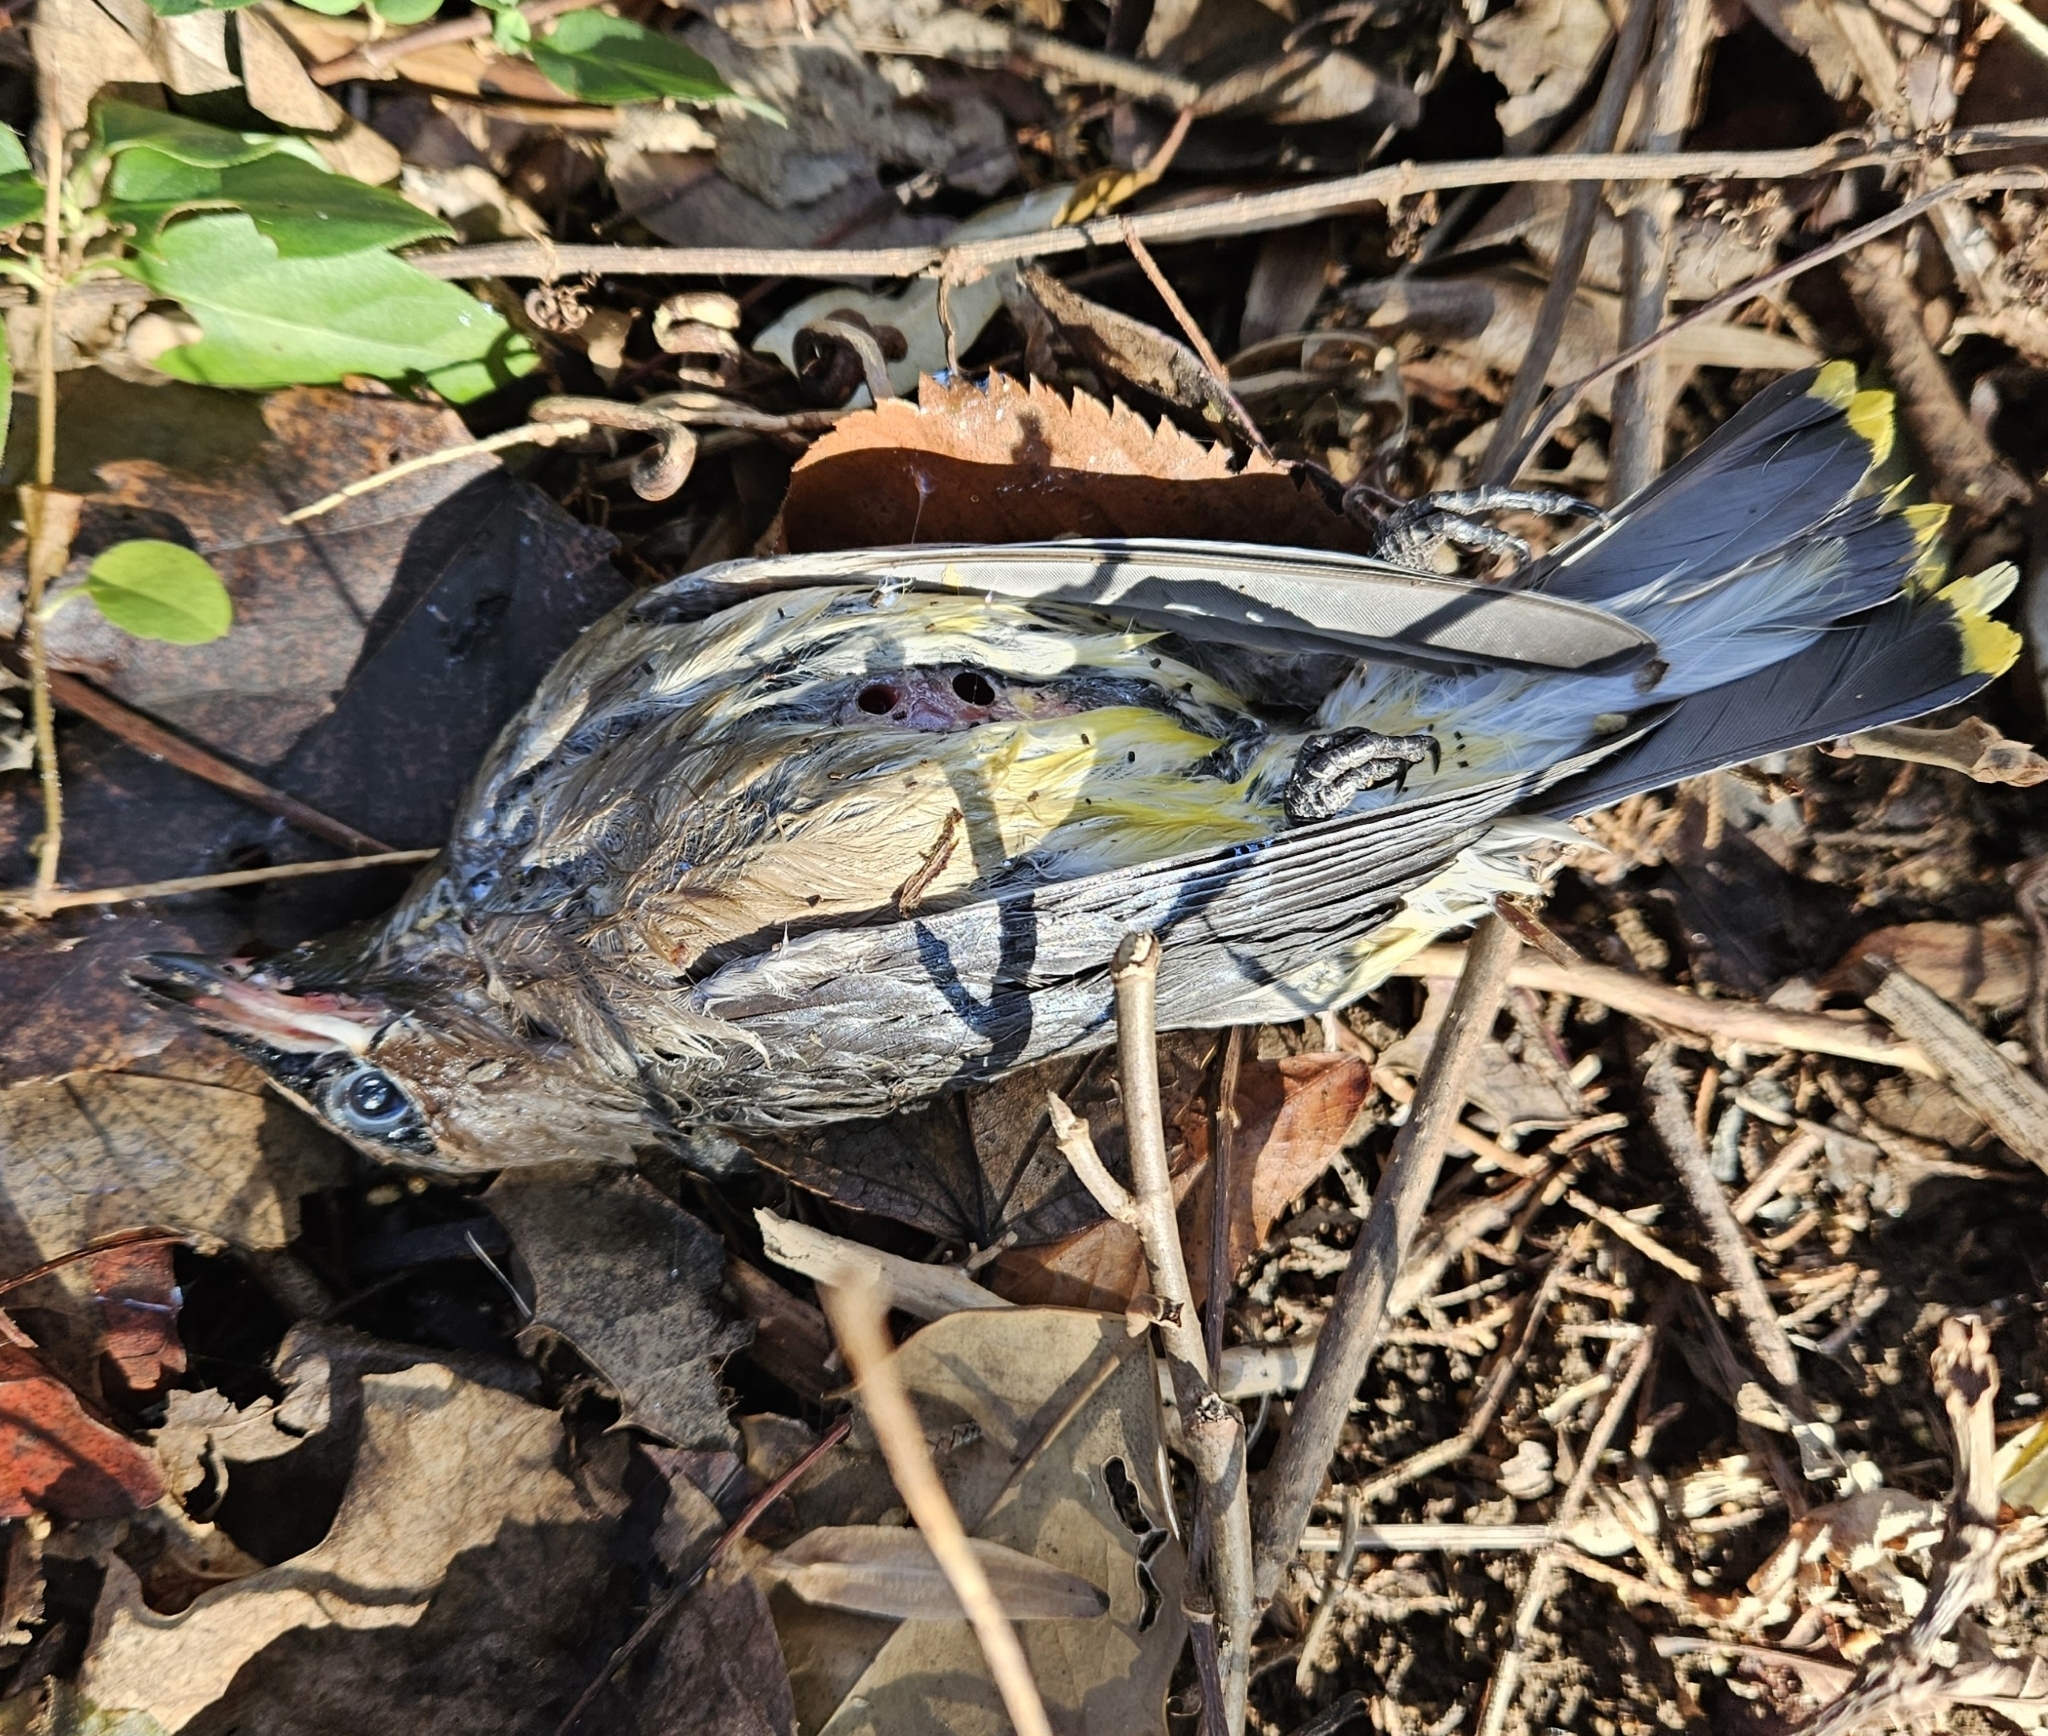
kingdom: Animalia
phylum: Chordata
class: Aves
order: Passeriformes
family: Bombycillidae
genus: Bombycilla
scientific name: Bombycilla cedrorum
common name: Cedar waxwing
